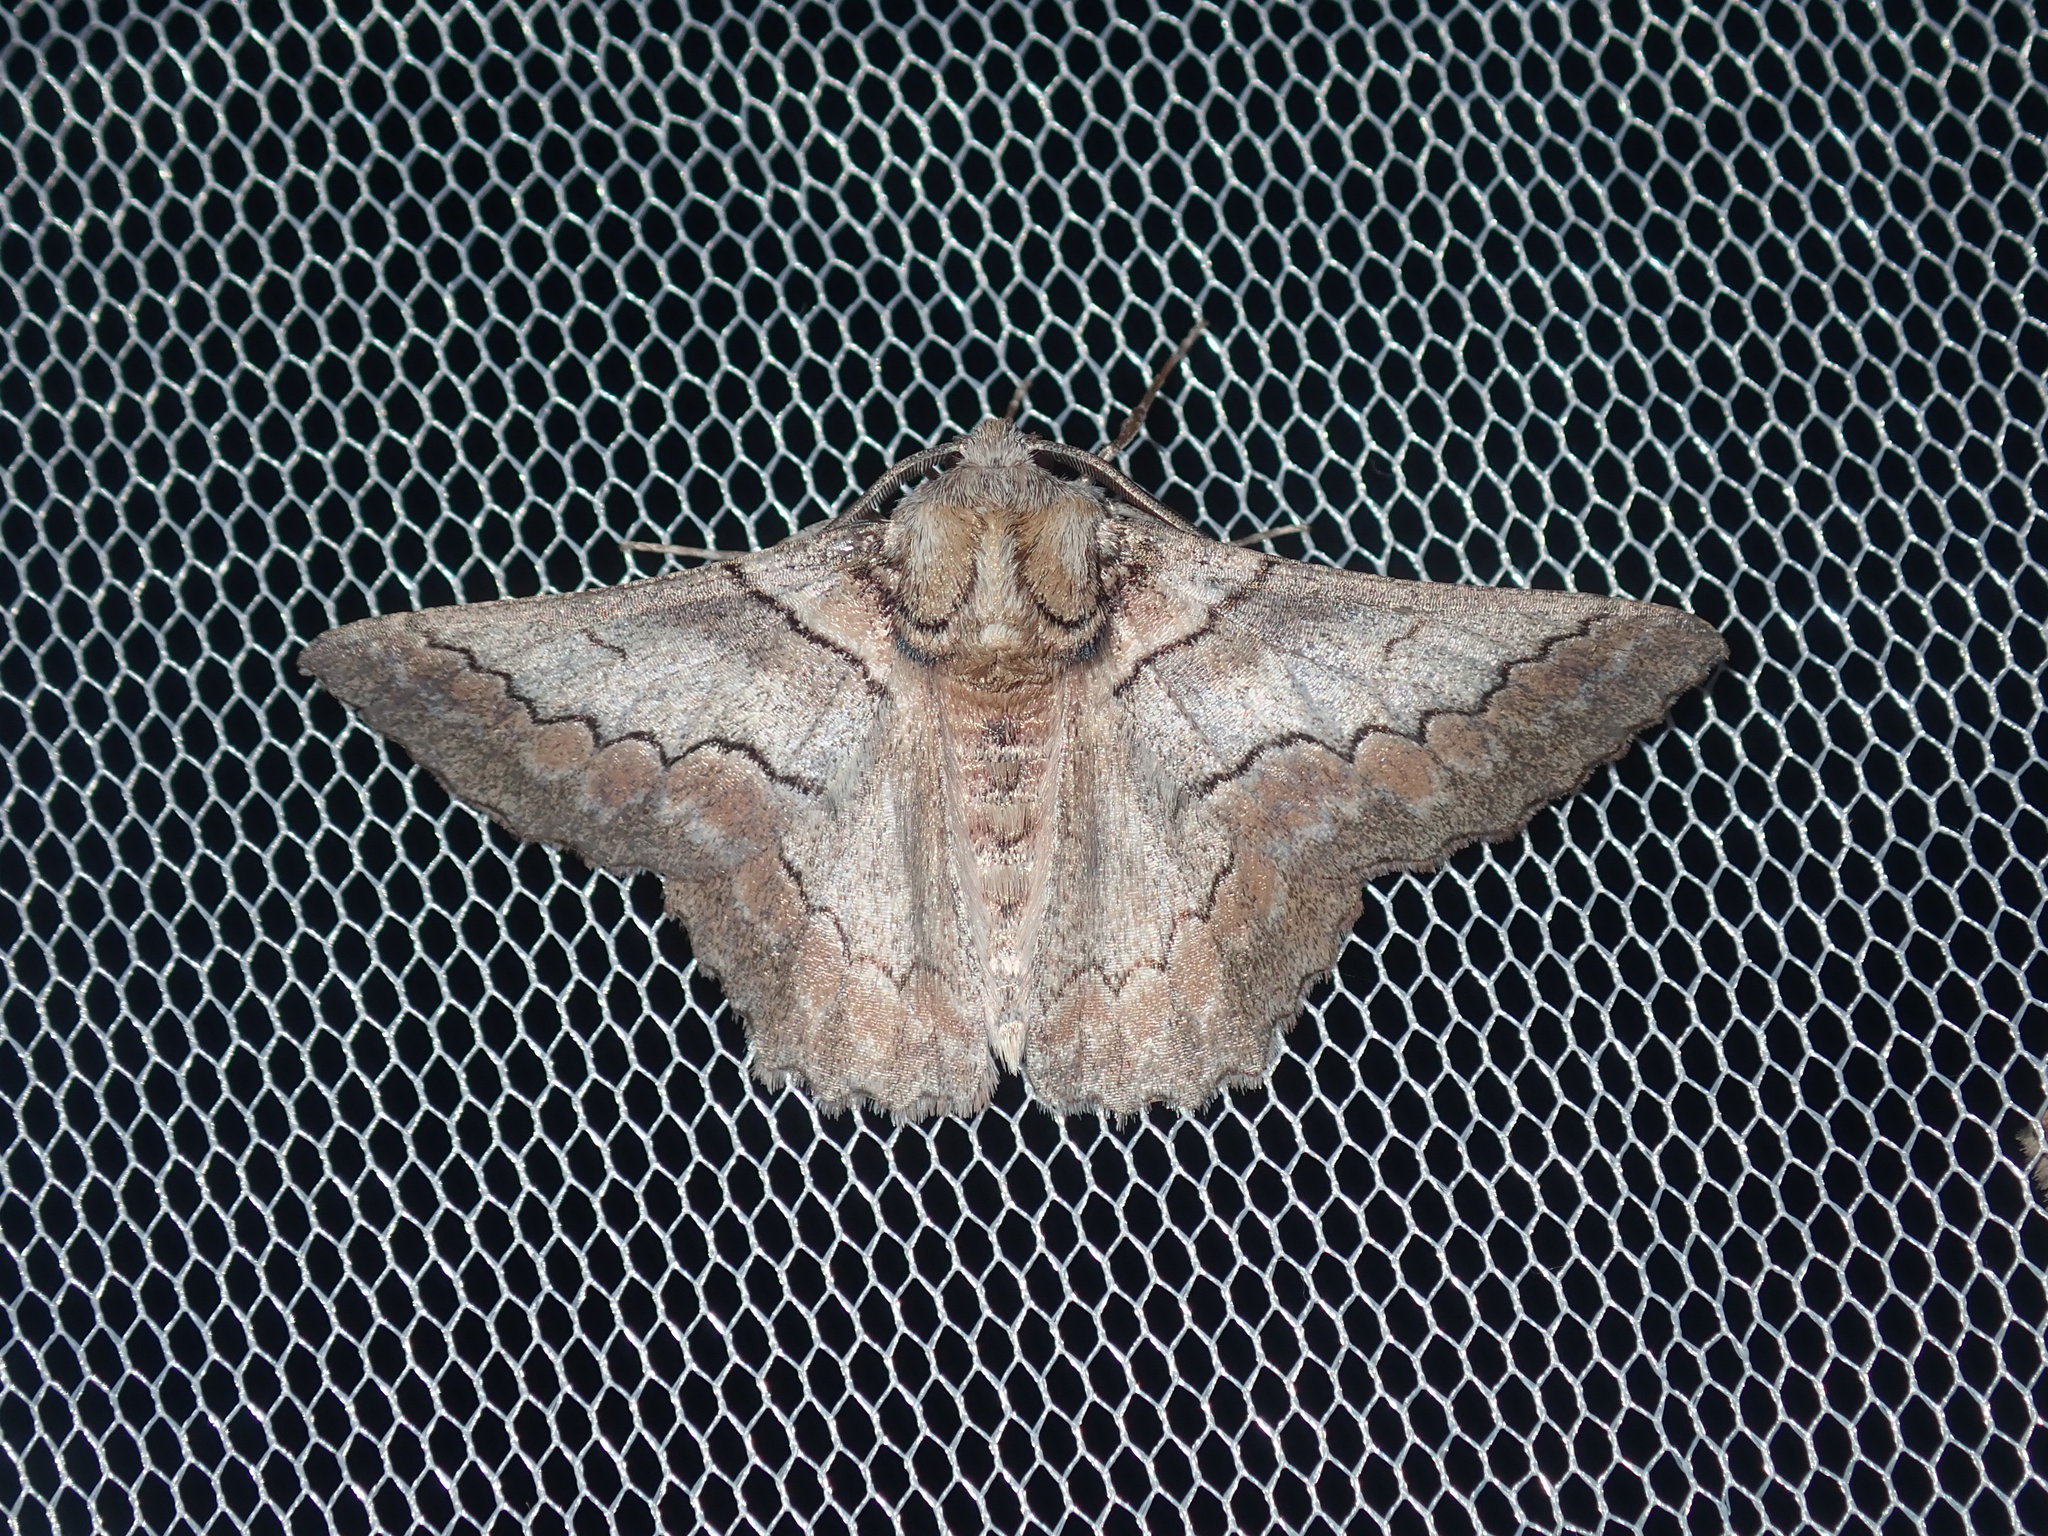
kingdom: Animalia
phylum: Arthropoda
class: Insecta
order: Lepidoptera
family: Geometridae
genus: Hypobapta
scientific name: Hypobapta tachyhalotaria
